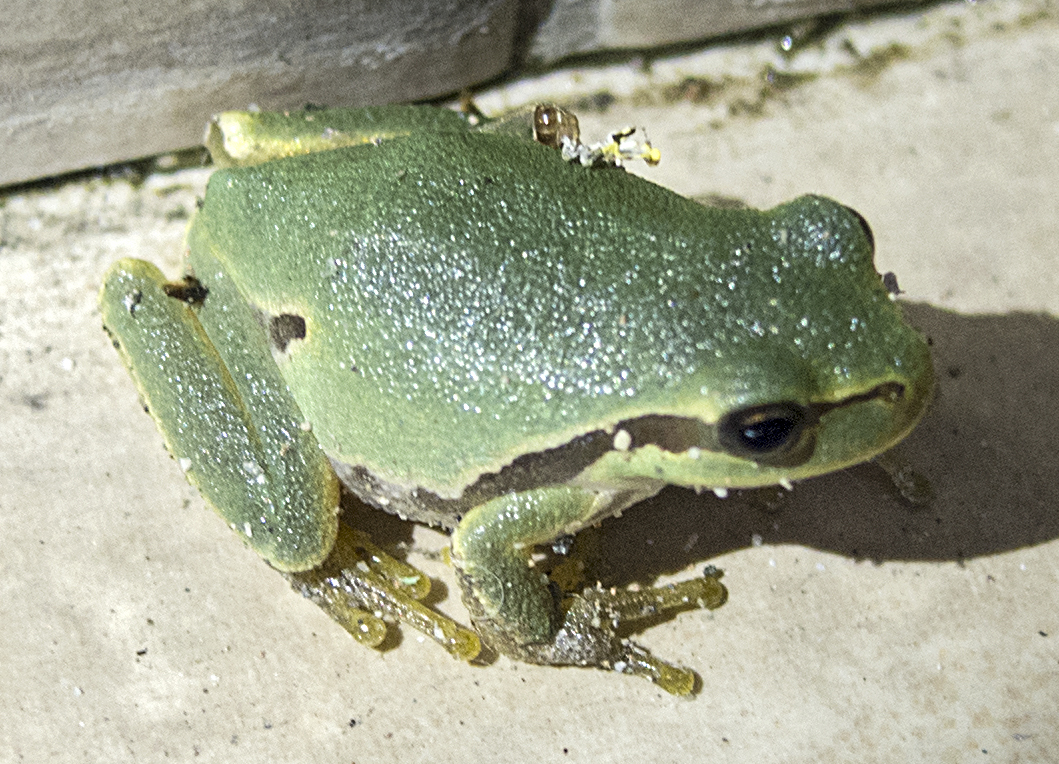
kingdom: Animalia
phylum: Chordata
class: Amphibia
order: Anura
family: Hylidae
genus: Hyla
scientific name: Hyla orientalis
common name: Caucasian treefrog
